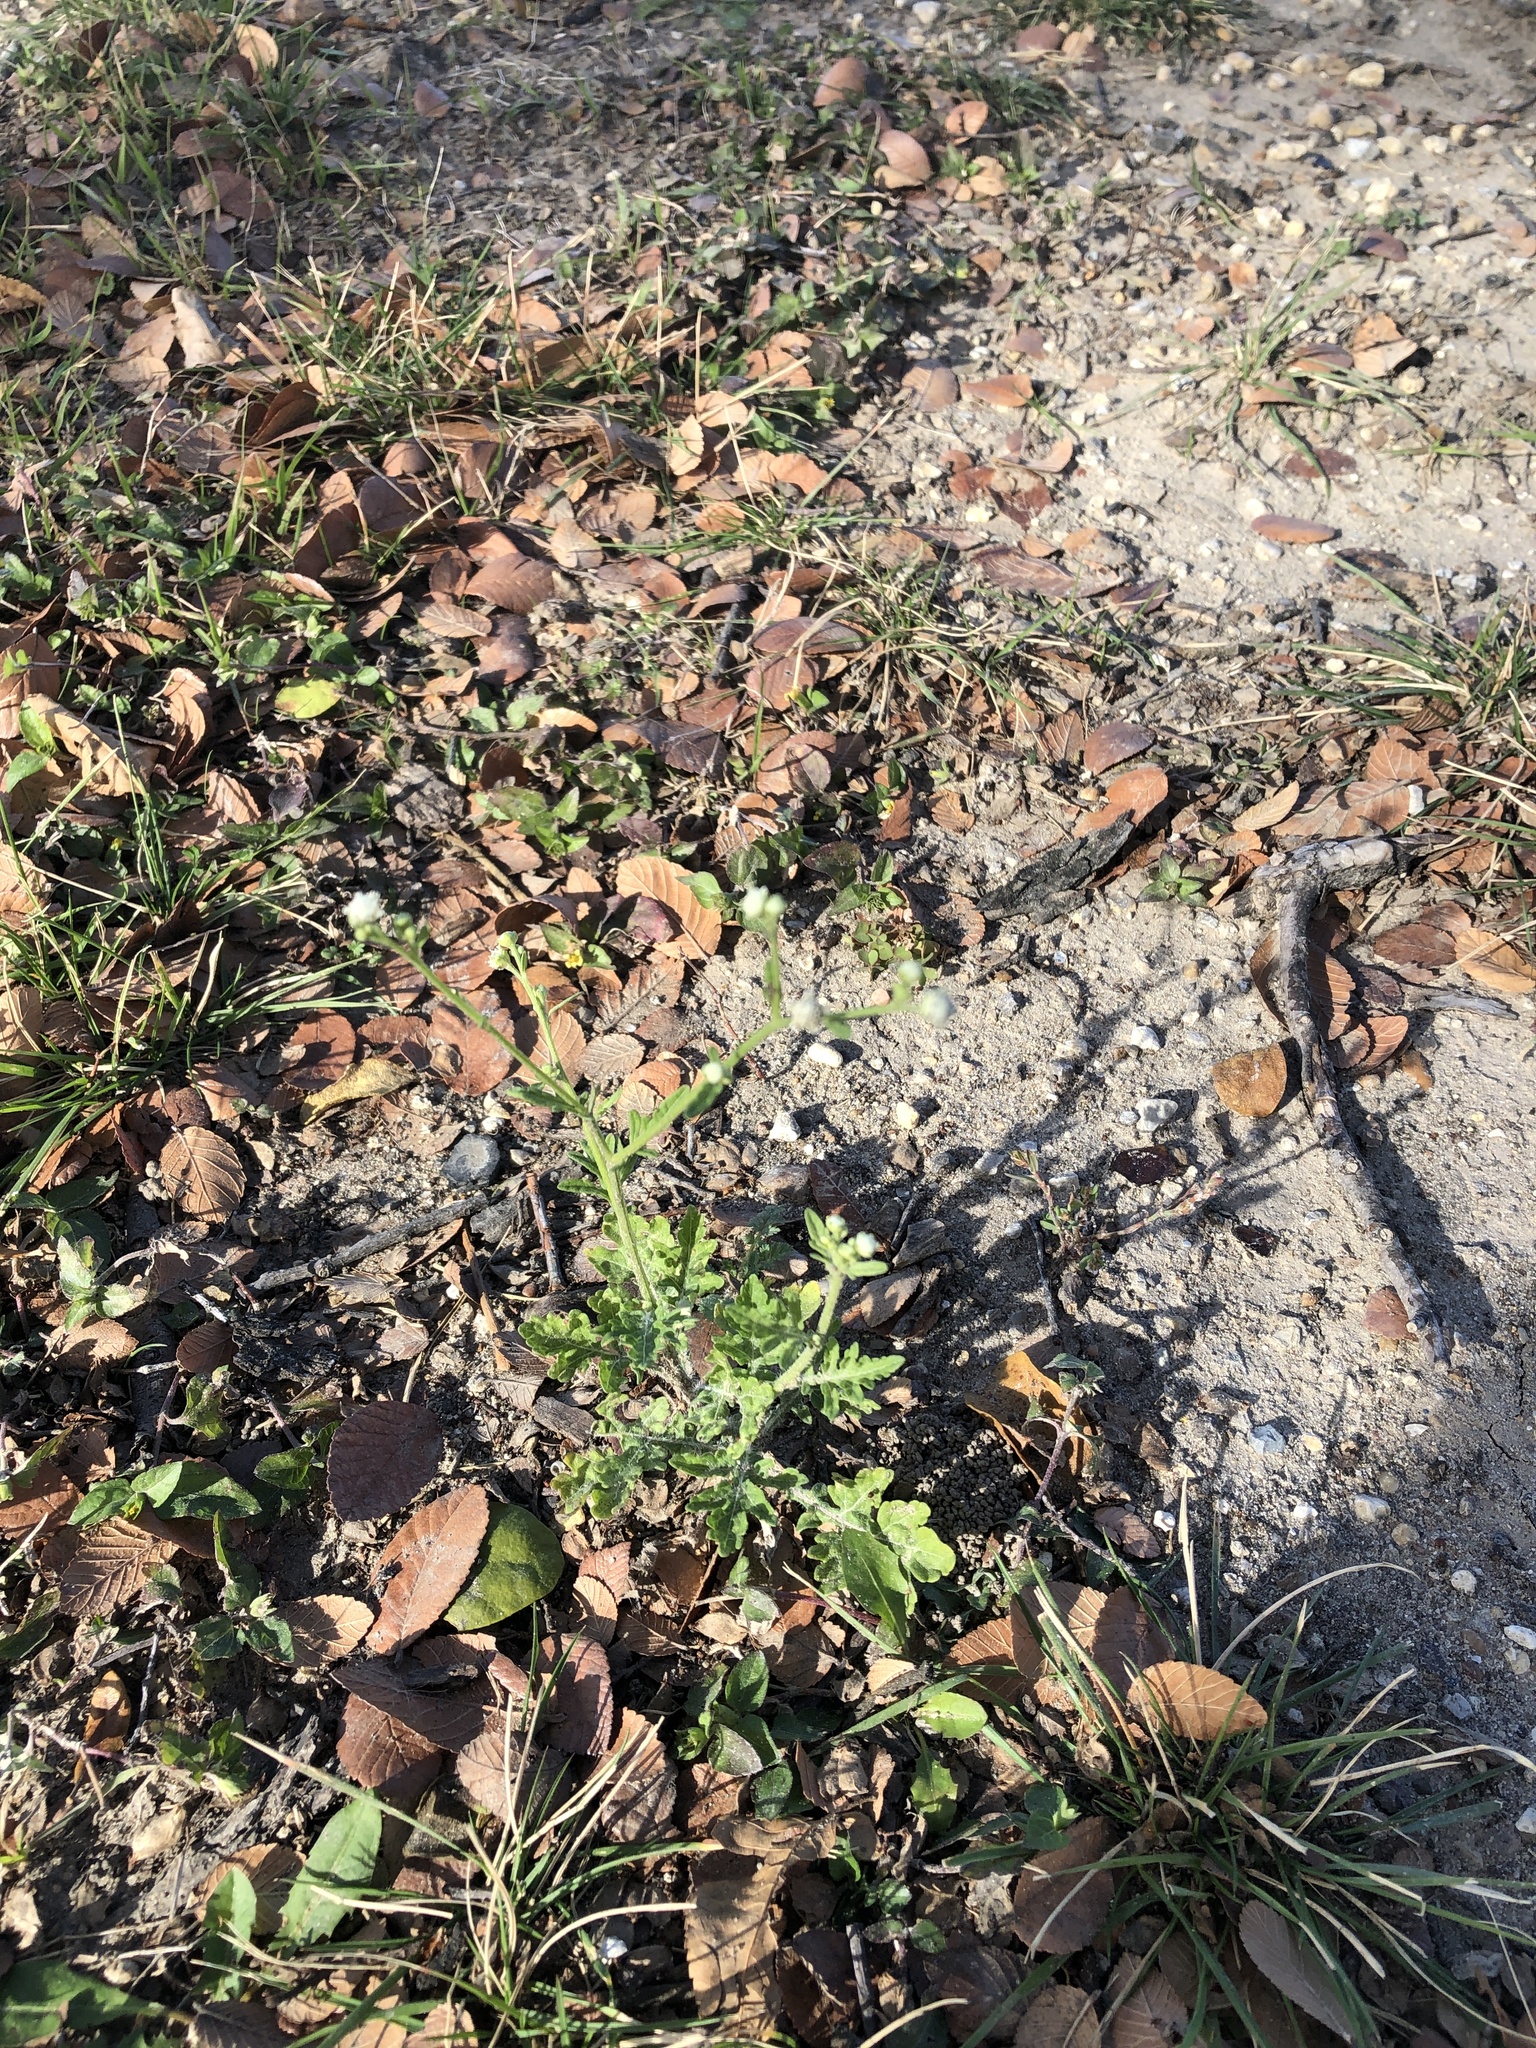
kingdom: Plantae
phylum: Tracheophyta
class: Magnoliopsida
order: Asterales
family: Asteraceae
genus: Parthenium
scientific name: Parthenium hysterophorus
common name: Santa maria feverfew
